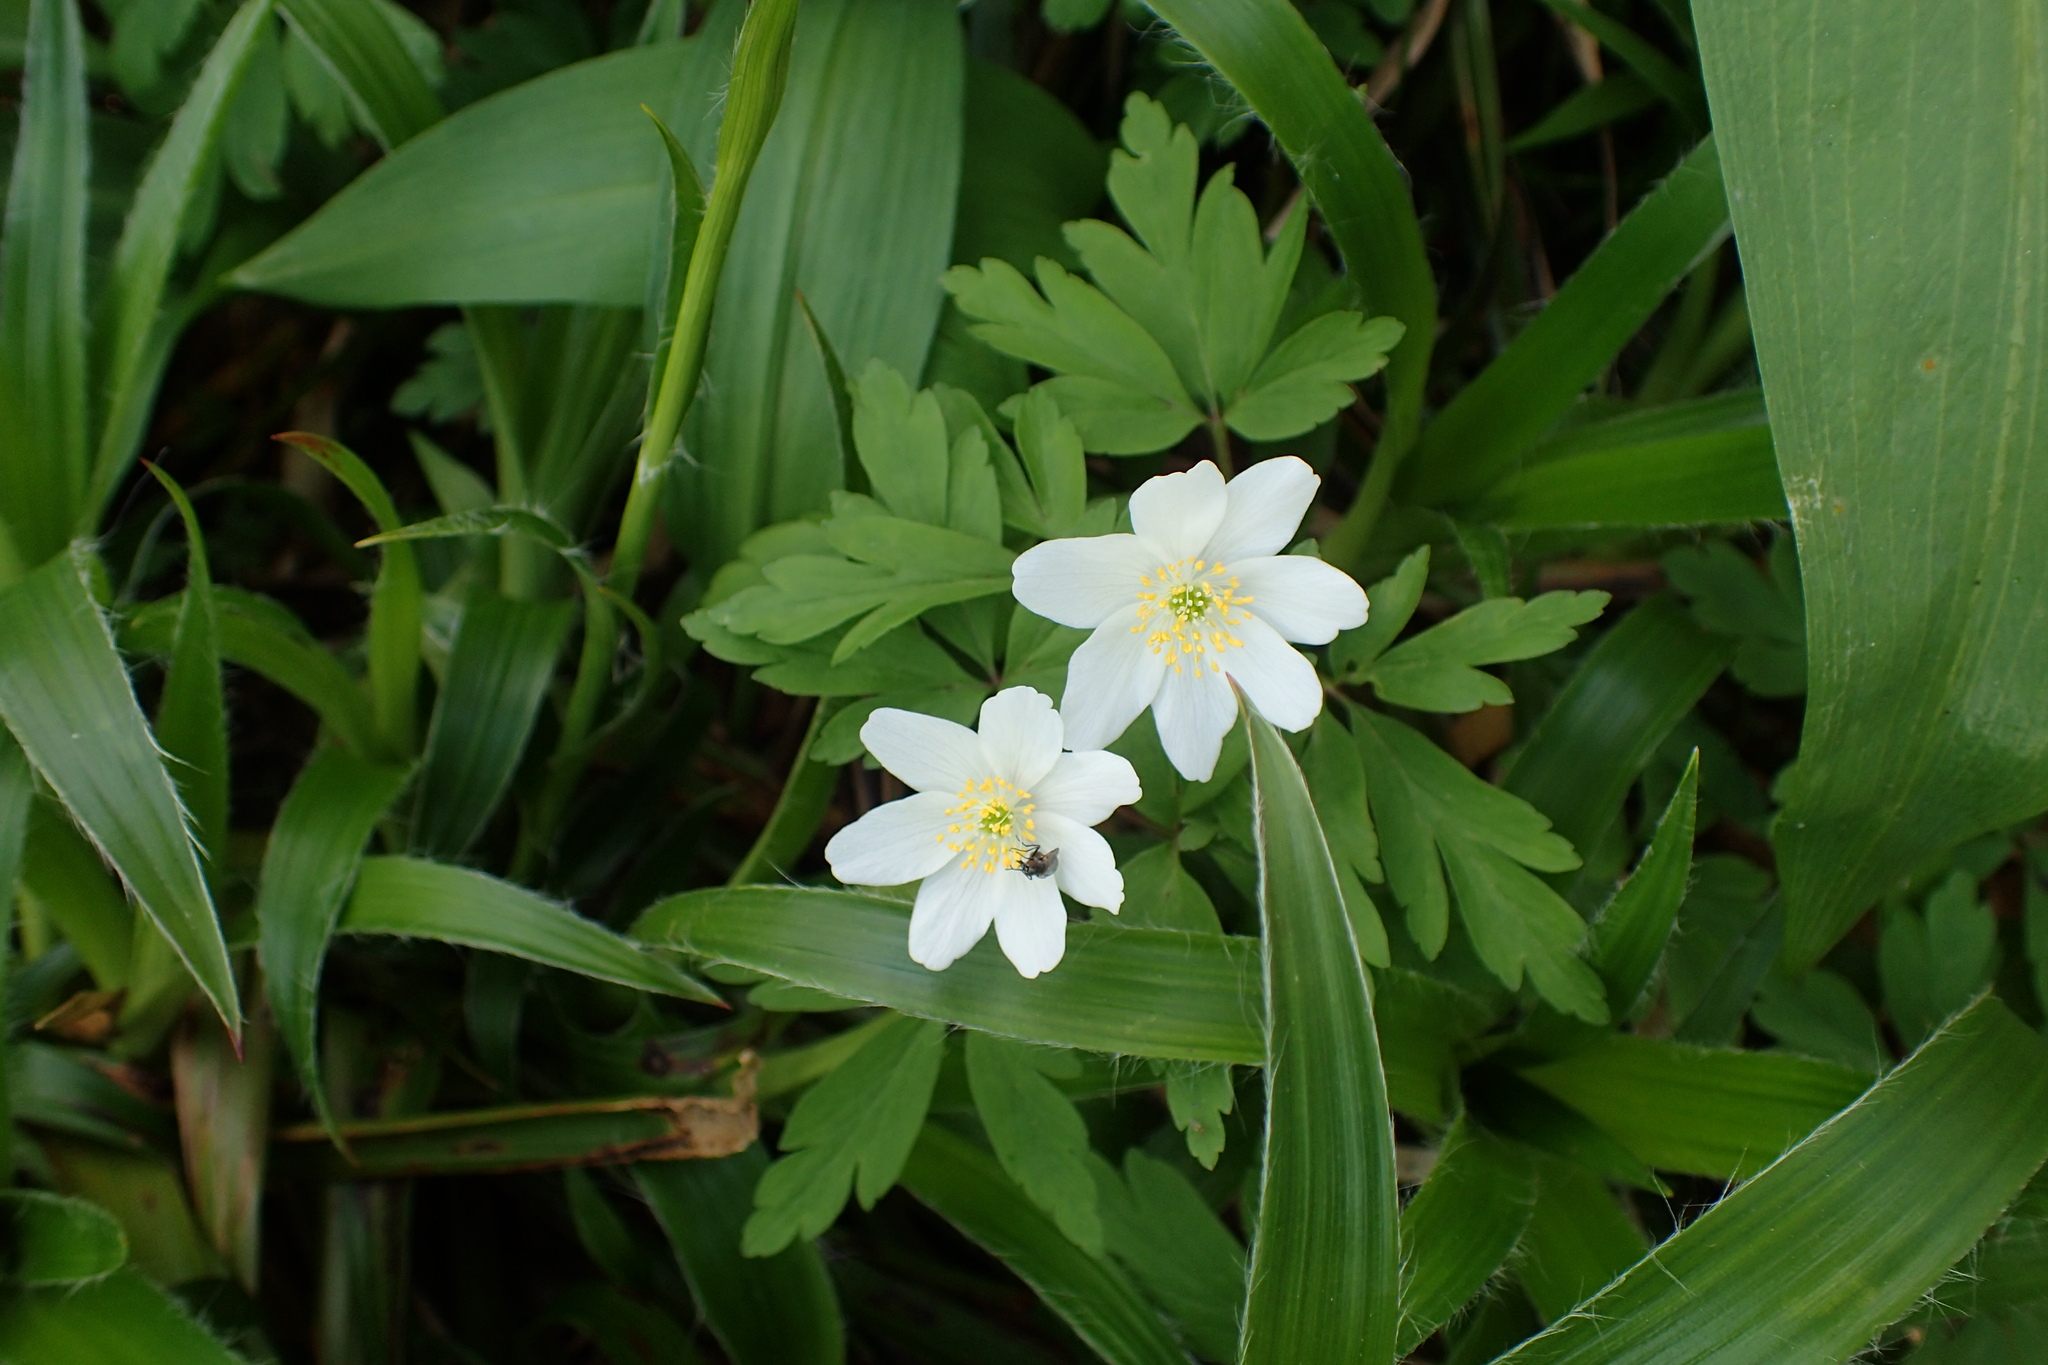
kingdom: Plantae
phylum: Tracheophyta
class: Magnoliopsida
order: Ranunculales
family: Ranunculaceae
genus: Anemone
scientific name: Anemone nemorosa
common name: Wood anemone
